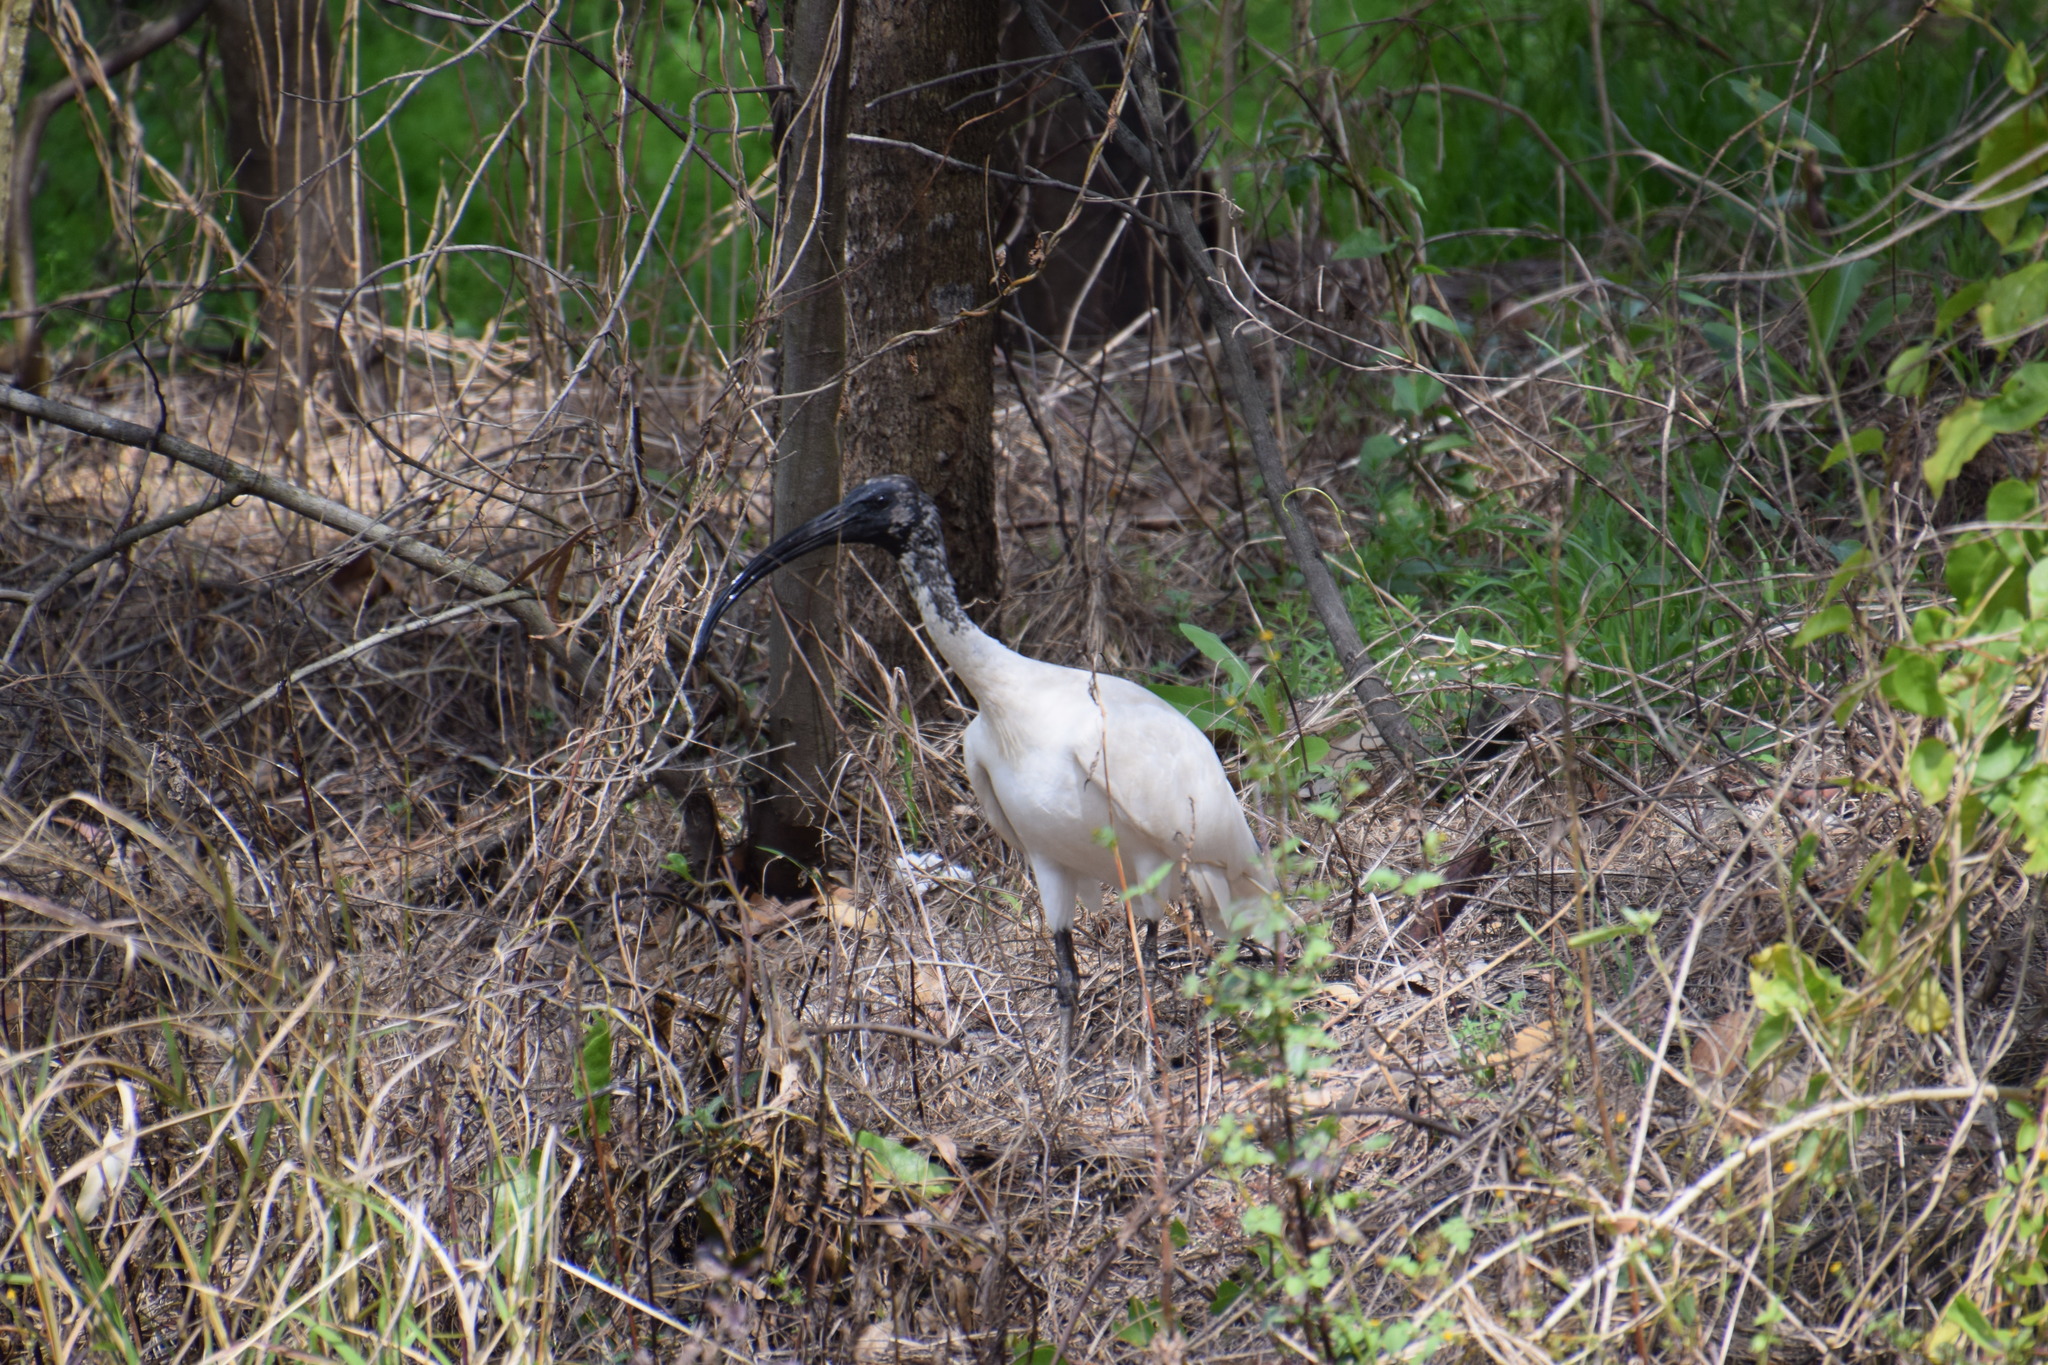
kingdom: Animalia
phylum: Chordata
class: Aves
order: Pelecaniformes
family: Threskiornithidae
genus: Threskiornis
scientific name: Threskiornis molucca
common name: Australian white ibis
